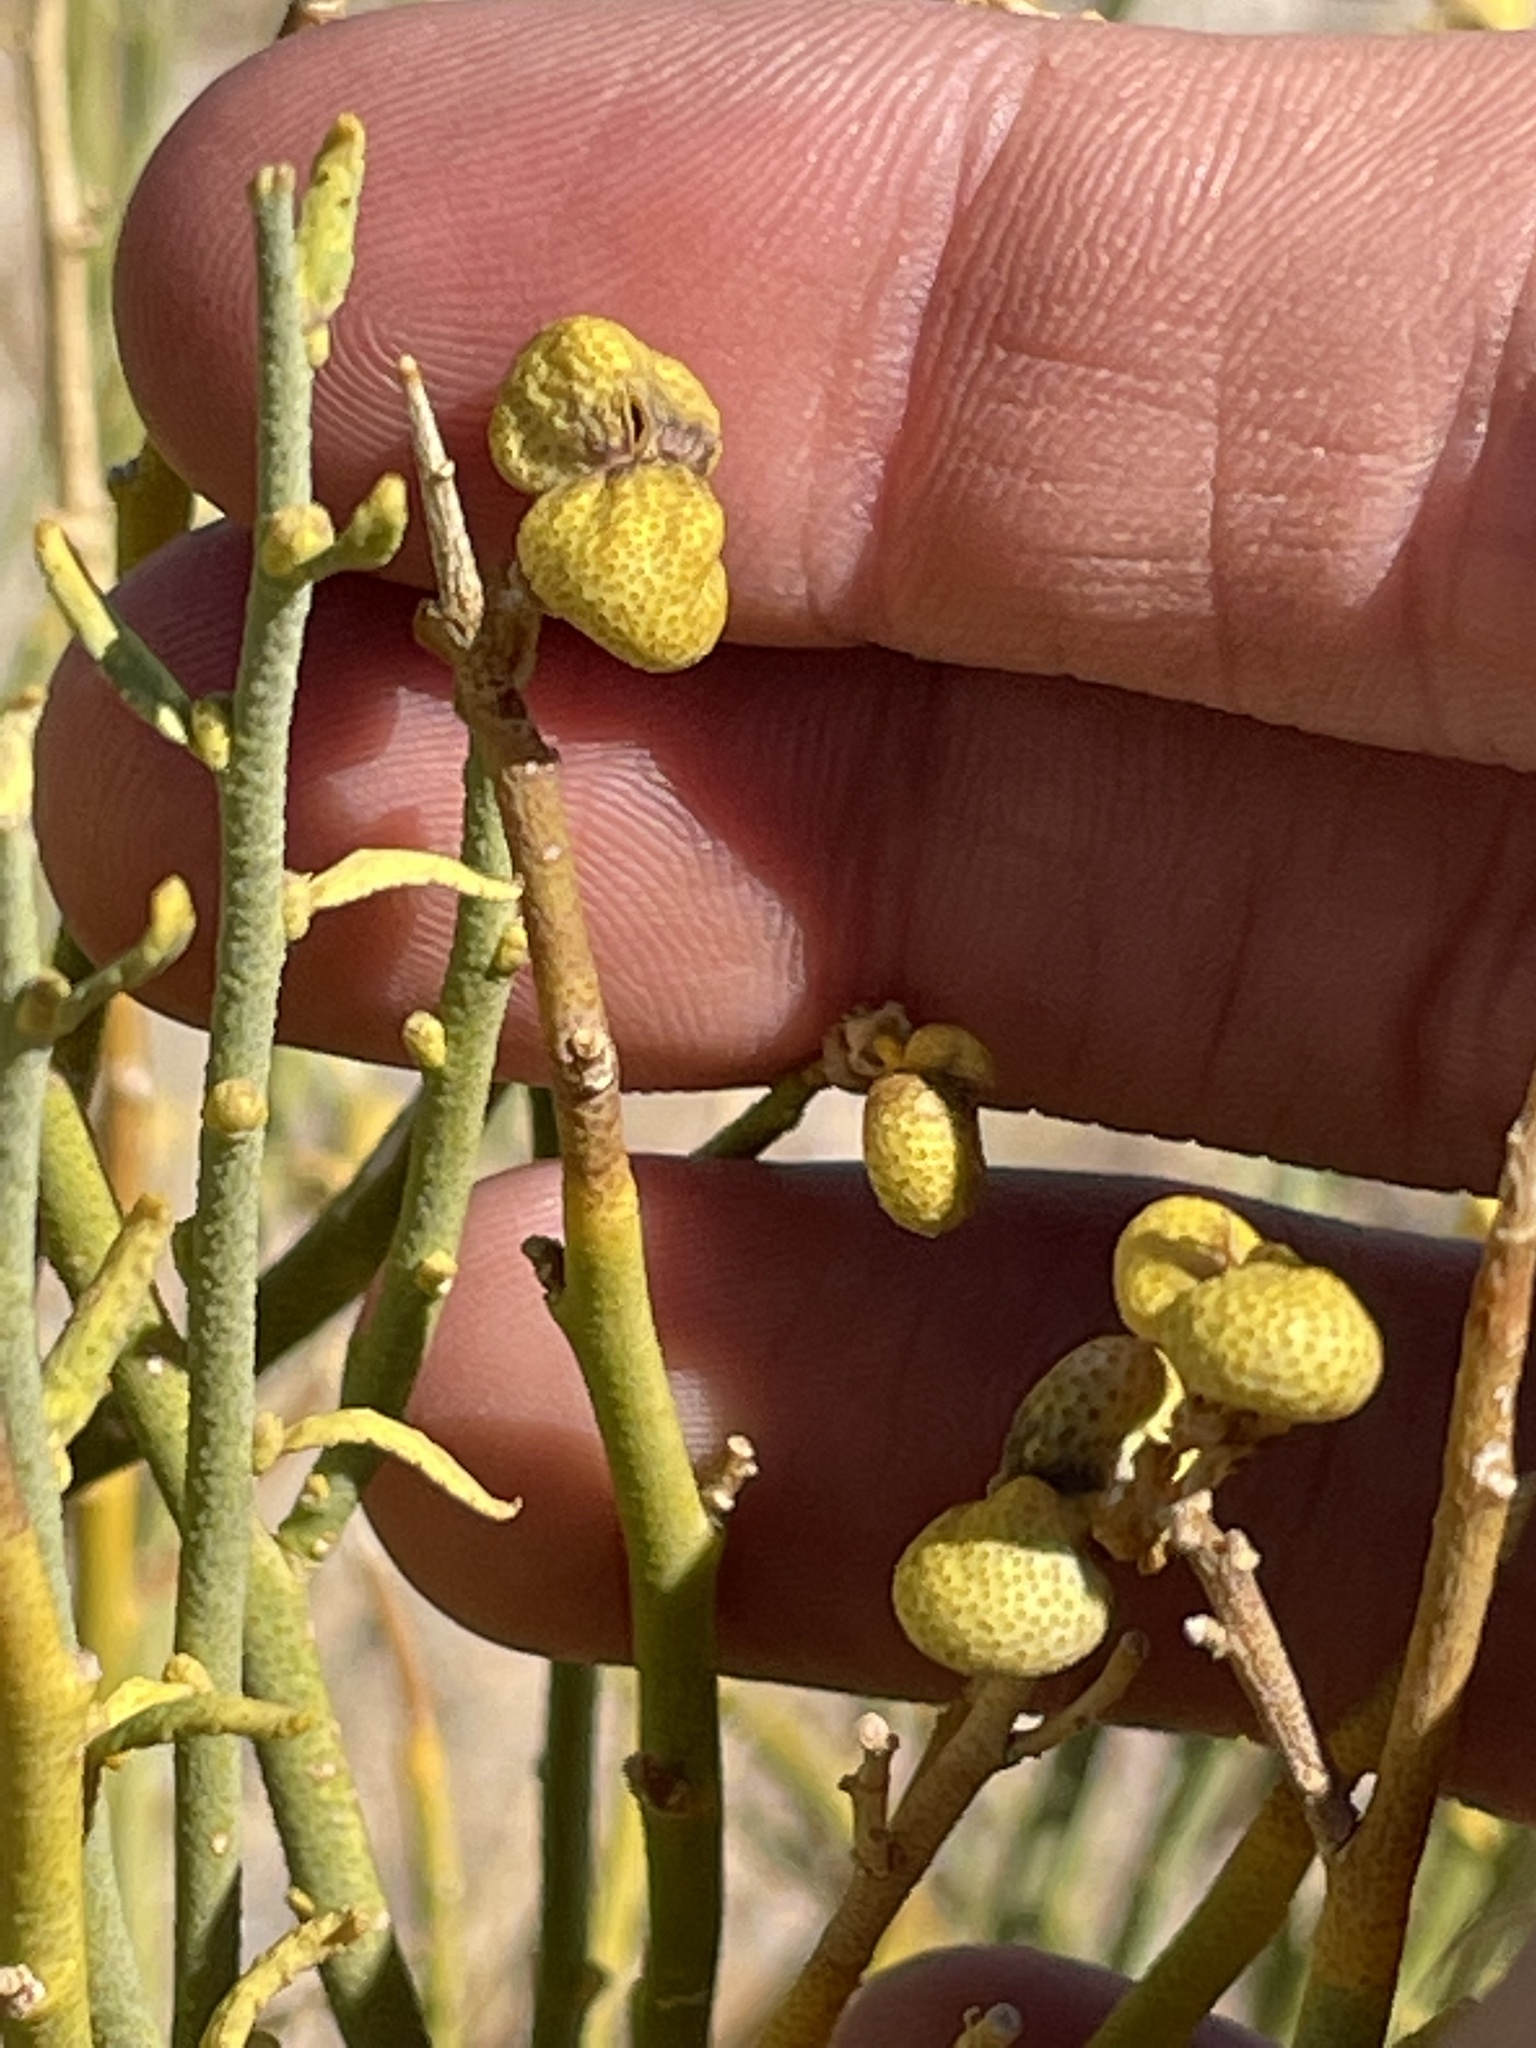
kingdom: Plantae
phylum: Tracheophyta
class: Magnoliopsida
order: Sapindales
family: Rutaceae
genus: Thamnosma
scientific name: Thamnosma montana
